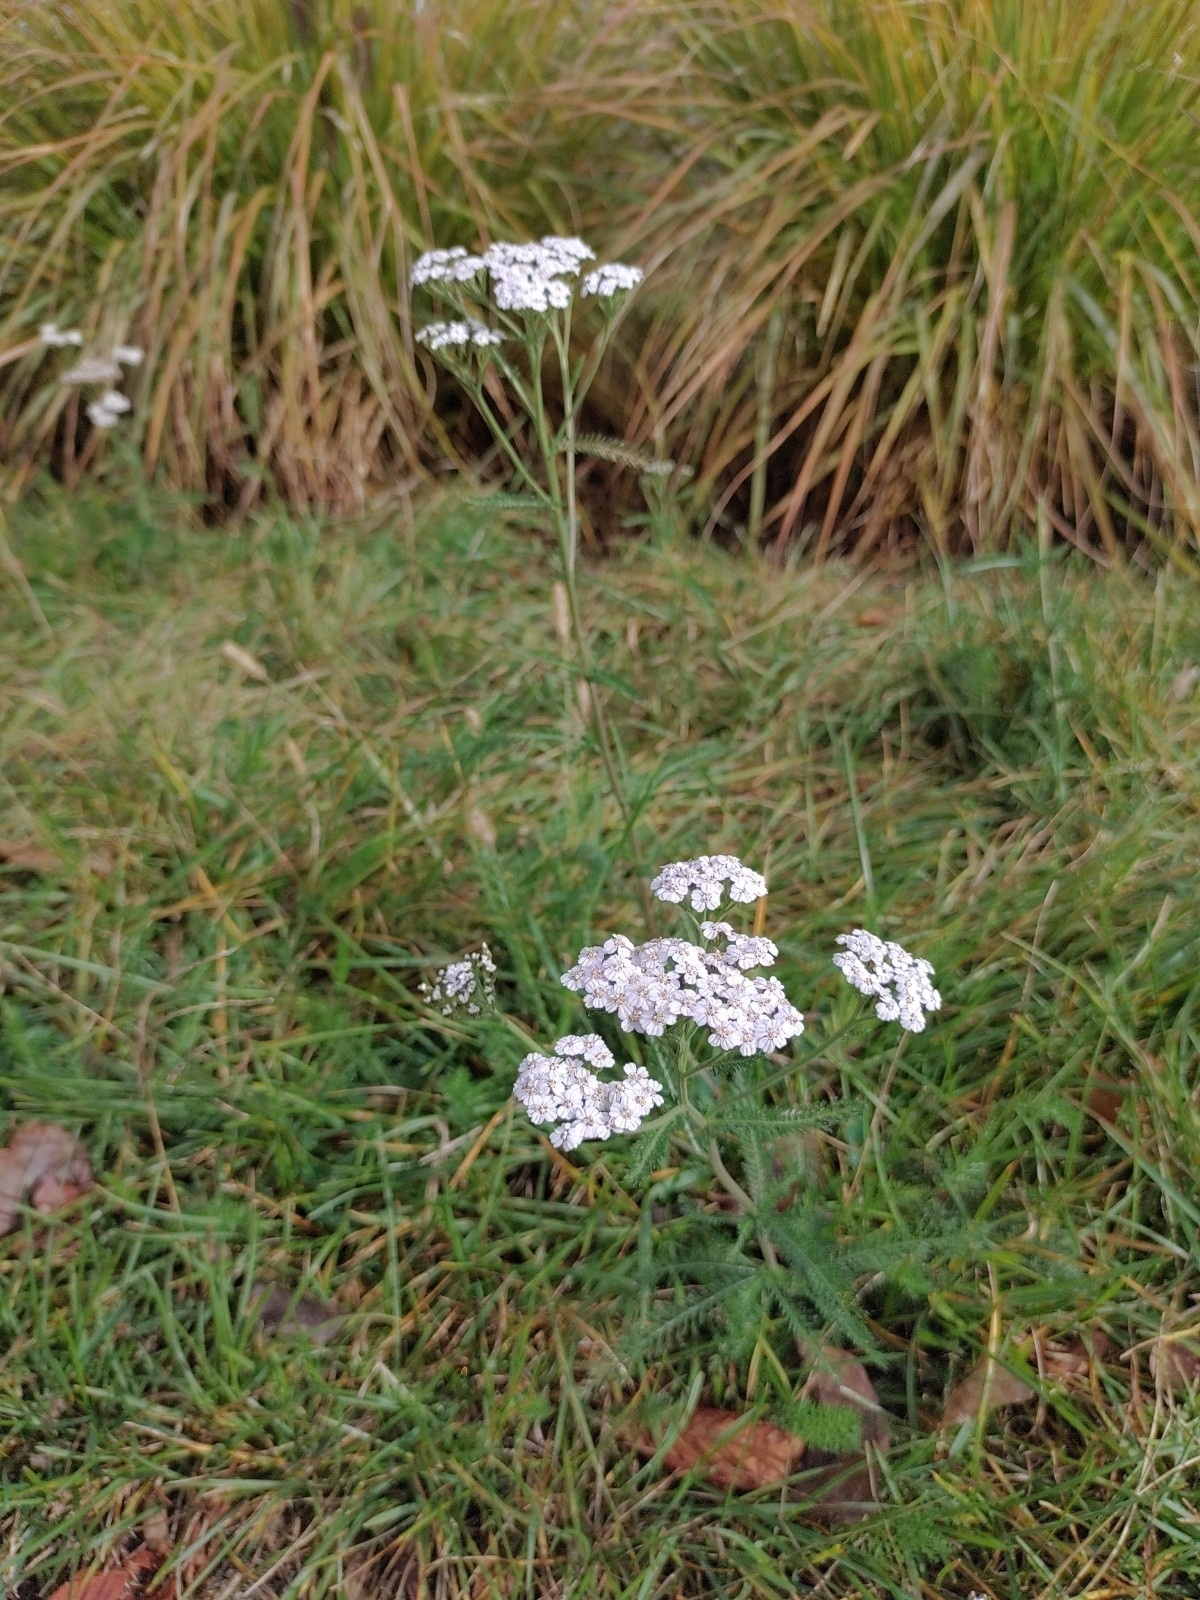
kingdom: Plantae
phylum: Tracheophyta
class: Magnoliopsida
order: Asterales
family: Asteraceae
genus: Achillea
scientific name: Achillea millefolium
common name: Yarrow
